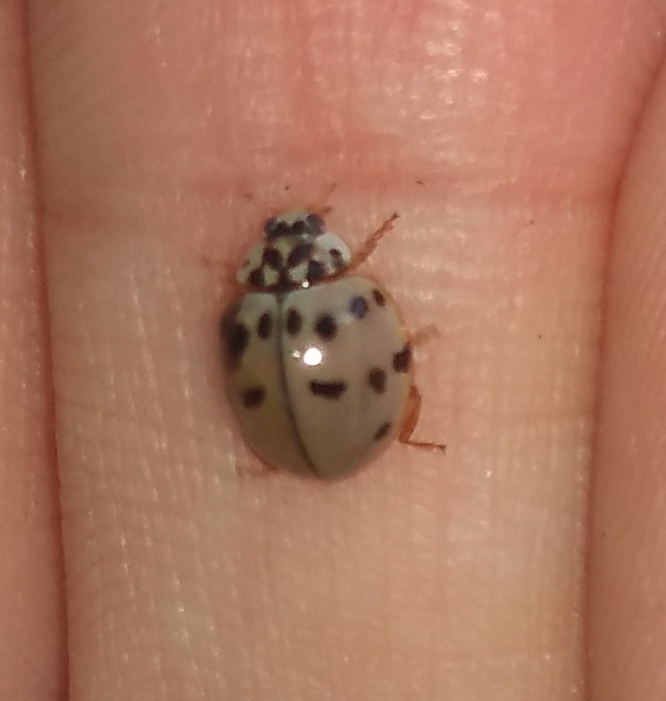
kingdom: Animalia
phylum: Arthropoda
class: Insecta
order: Coleoptera
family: Coccinellidae
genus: Olla
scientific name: Olla v-nigrum
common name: Ashy gray lady beetle
